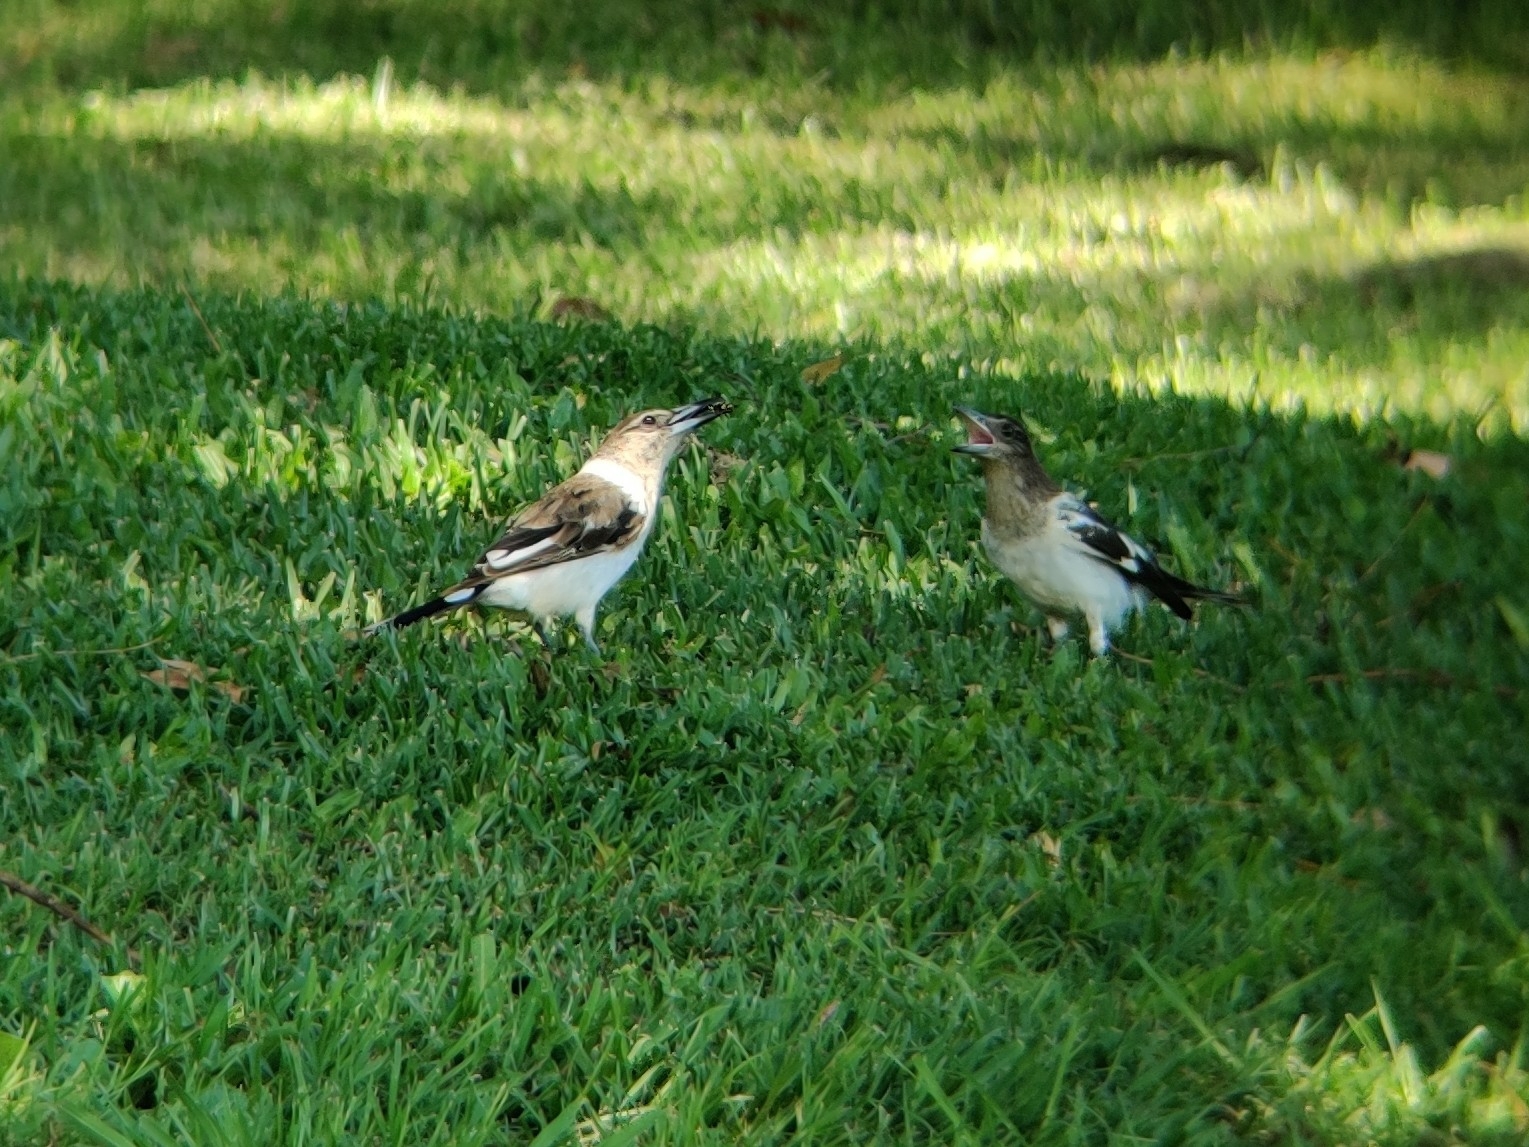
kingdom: Animalia
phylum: Chordata
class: Aves
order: Passeriformes
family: Cracticidae
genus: Cracticus
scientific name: Cracticus nigrogularis
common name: Pied butcherbird
